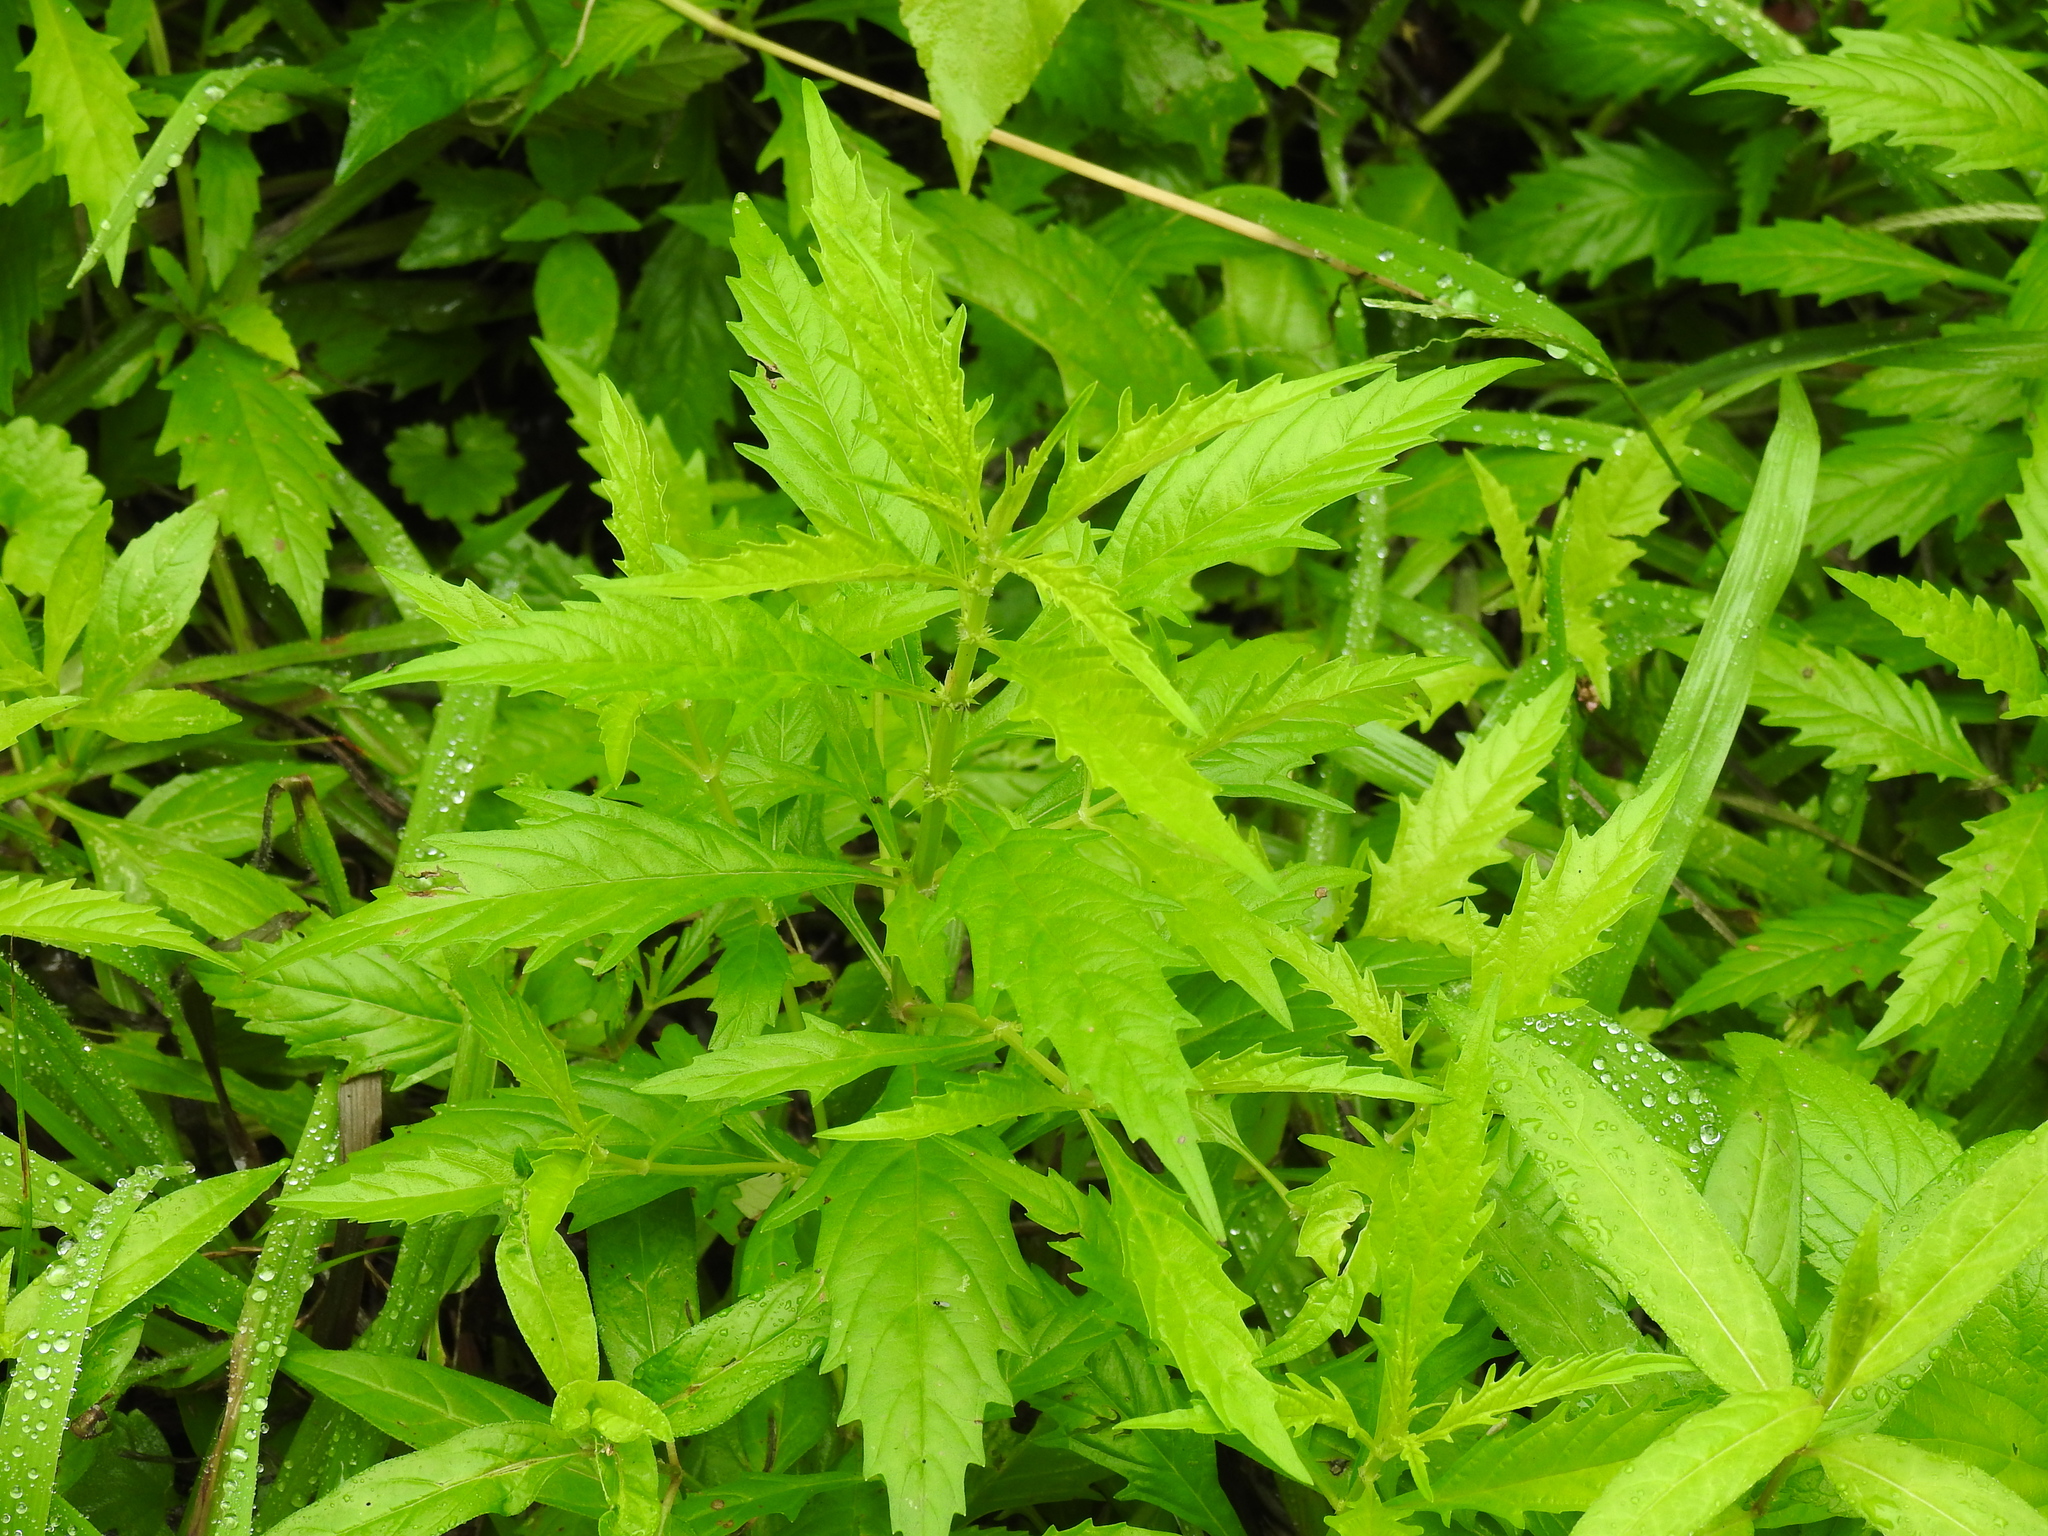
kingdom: Plantae
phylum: Tracheophyta
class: Magnoliopsida
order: Lamiales
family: Lamiaceae
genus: Lycopus
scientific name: Lycopus americanus
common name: American bugleweed
